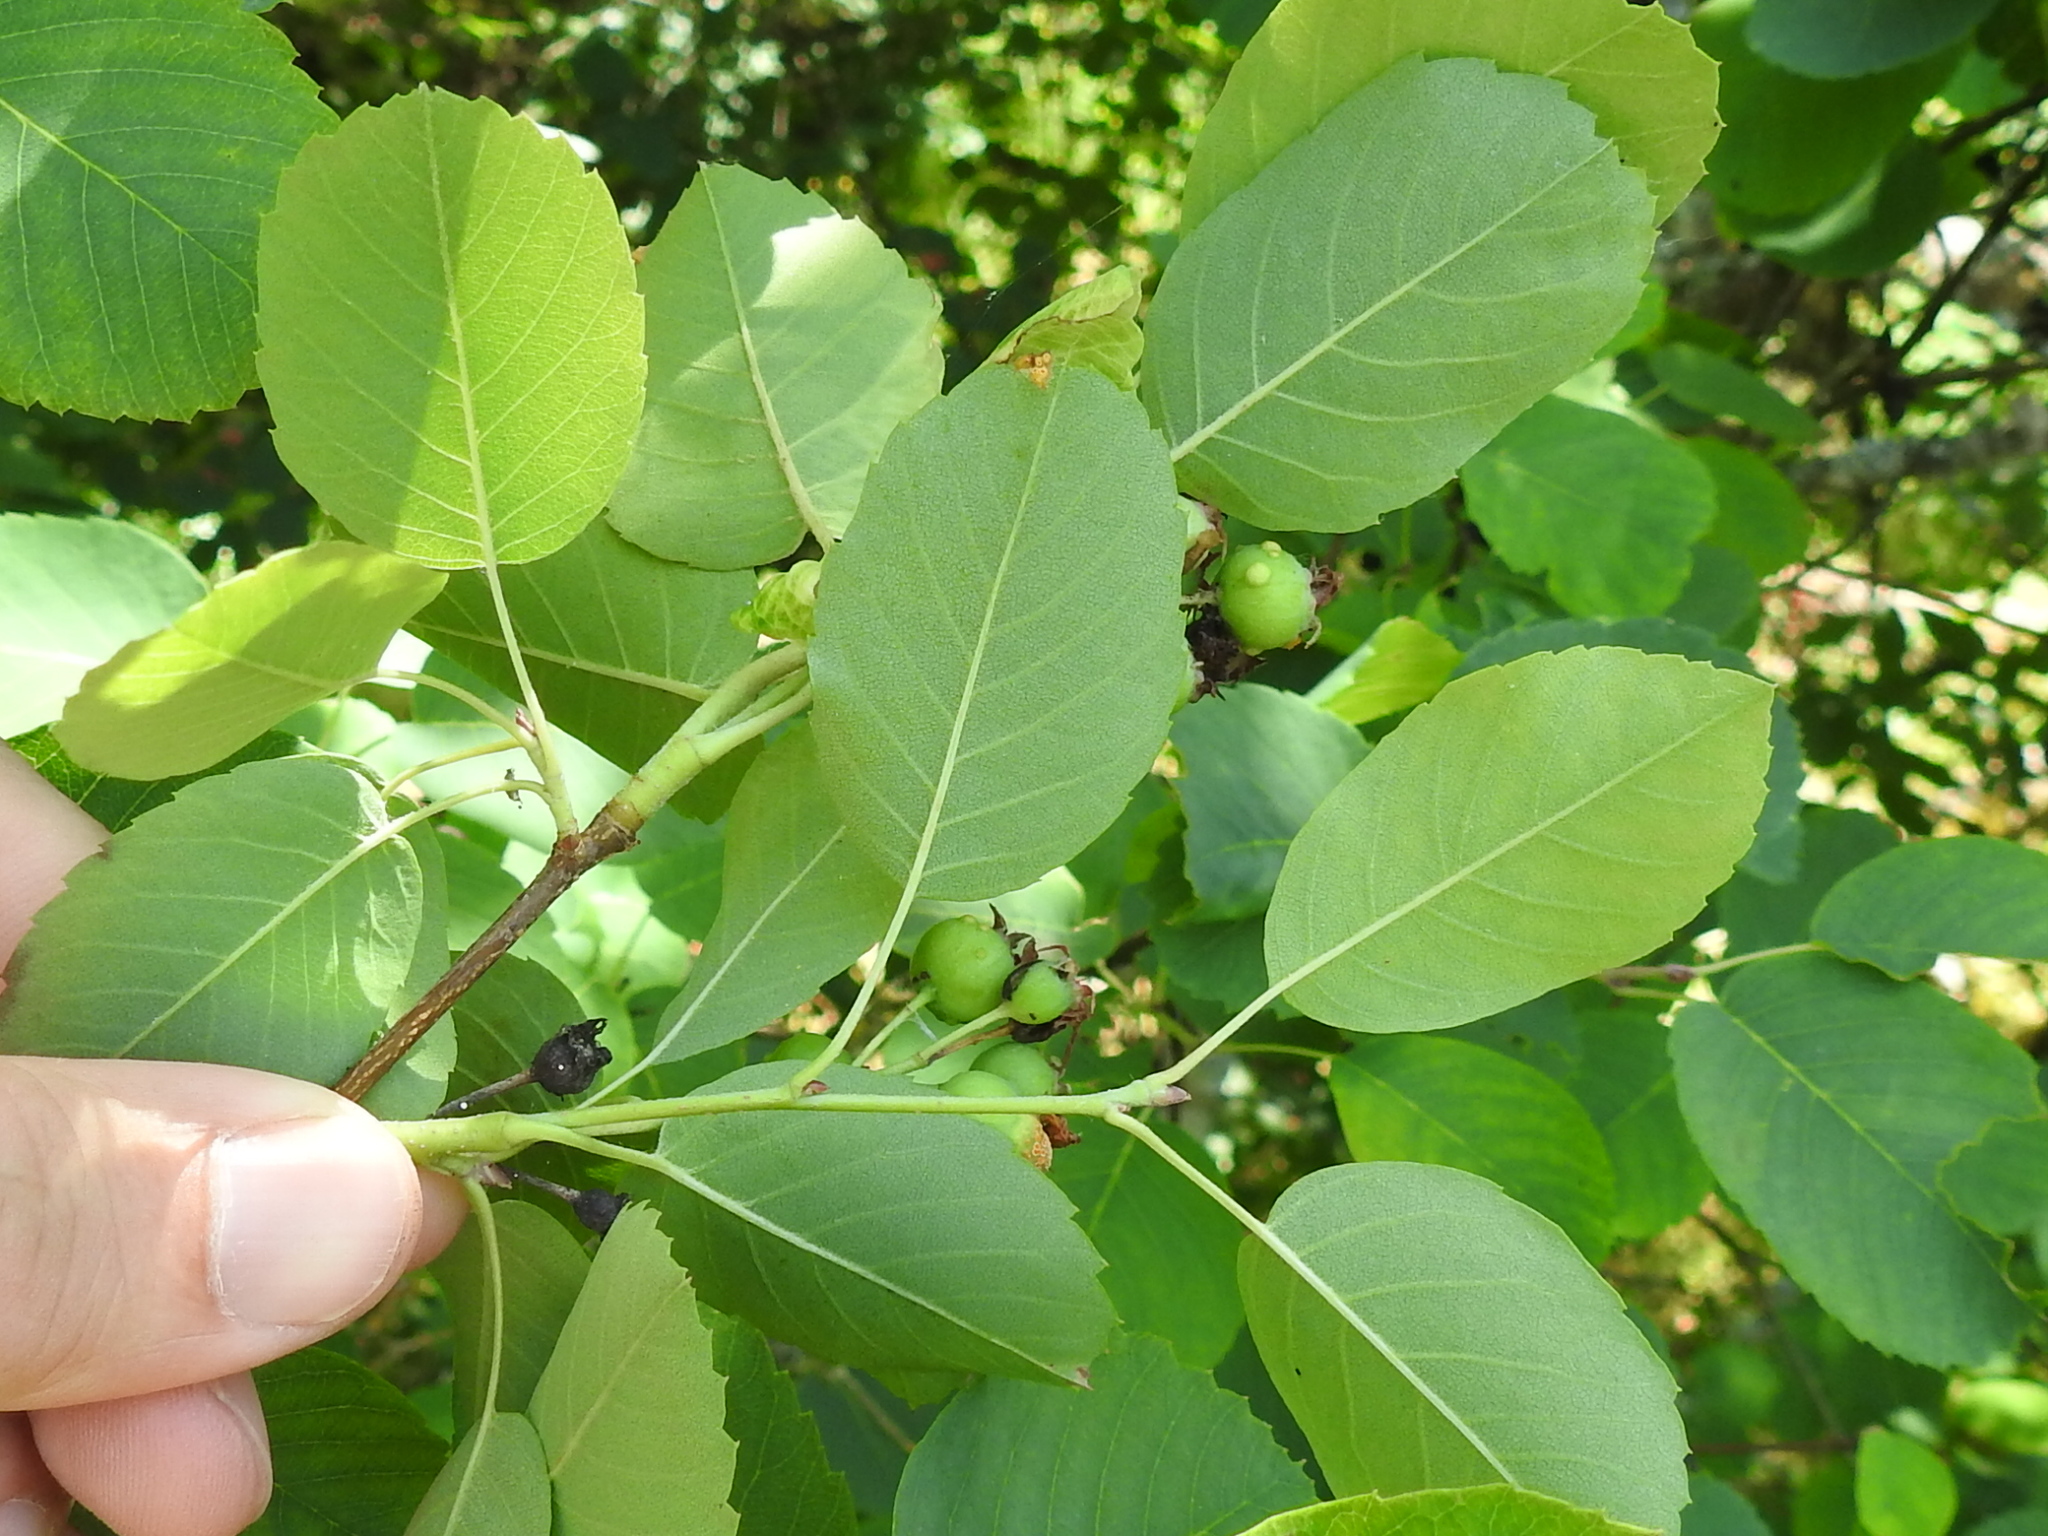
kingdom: Plantae
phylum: Tracheophyta
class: Magnoliopsida
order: Rosales
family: Rosaceae
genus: Amelanchier
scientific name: Amelanchier alnifolia
